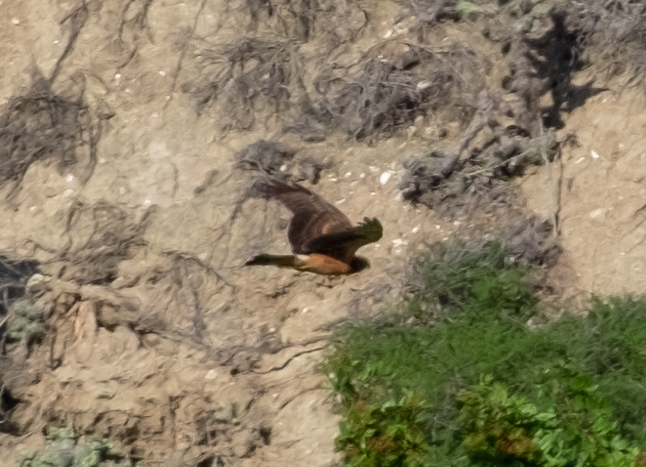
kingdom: Animalia
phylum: Chordata
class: Aves
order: Accipitriformes
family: Accipitridae
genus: Circus
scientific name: Circus cyaneus
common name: Hen harrier
